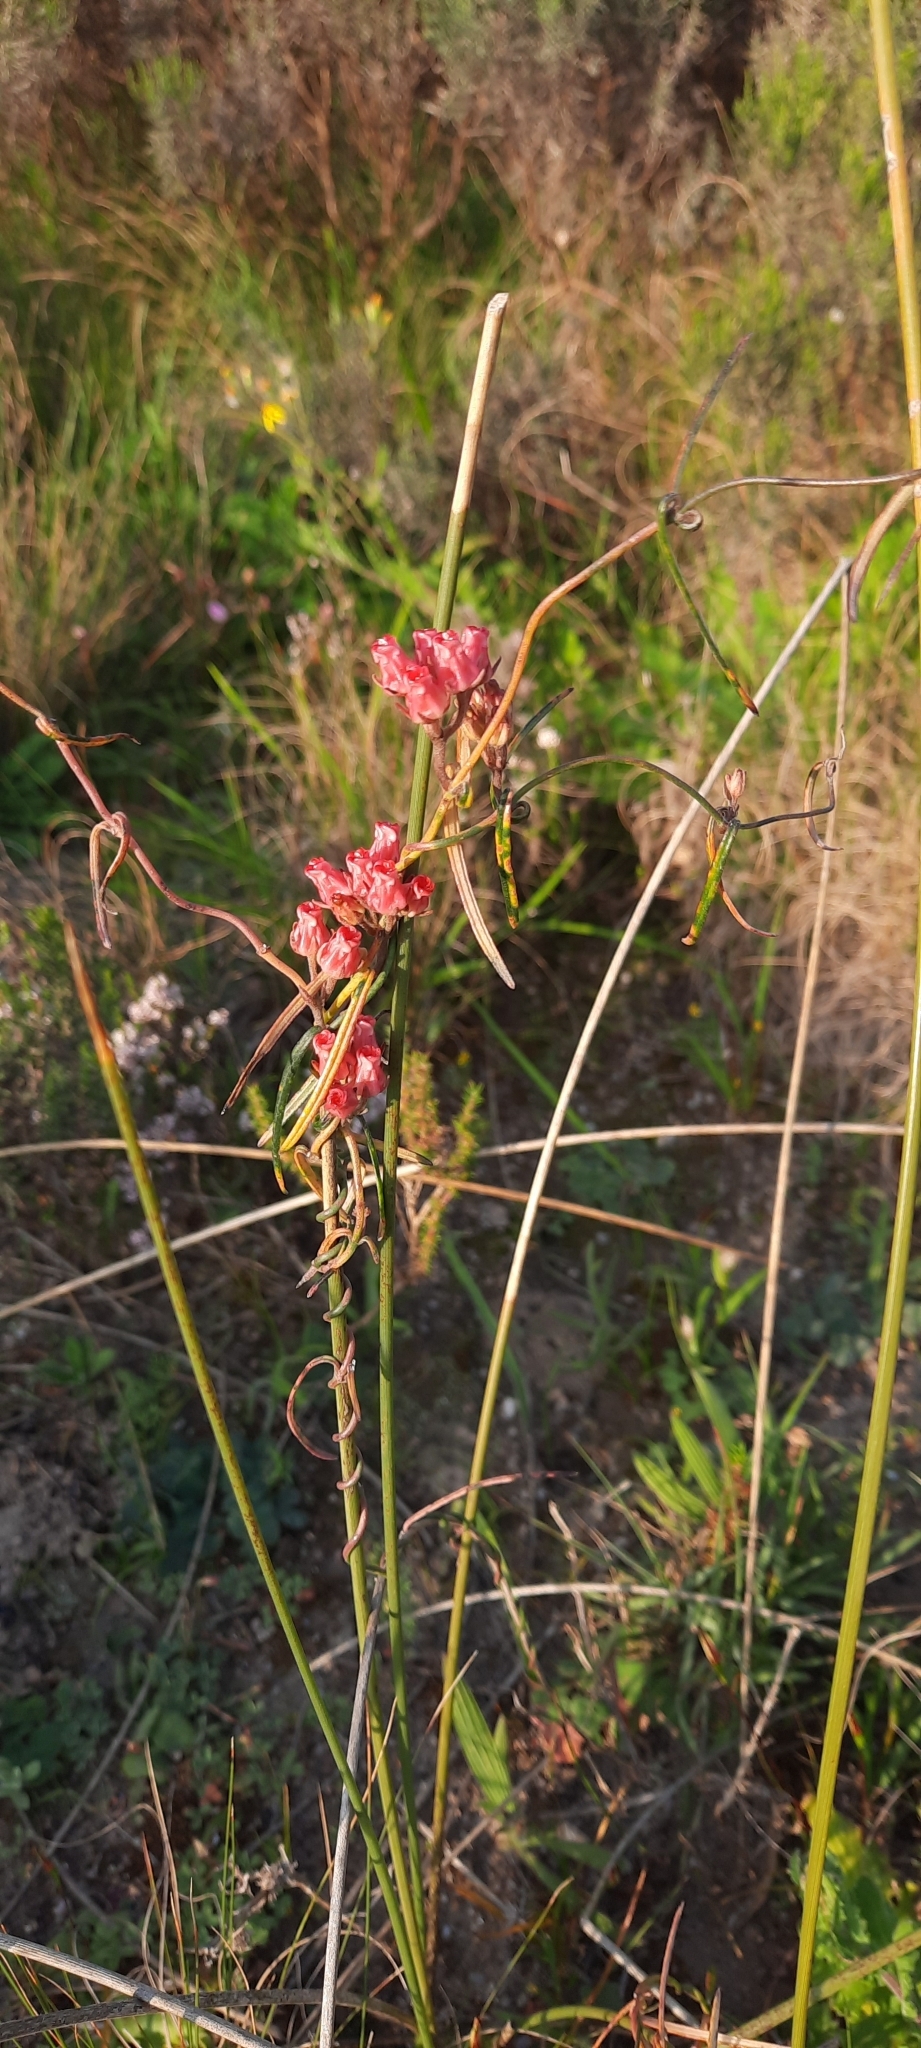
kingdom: Plantae
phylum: Tracheophyta
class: Magnoliopsida
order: Gentianales
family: Apocynaceae
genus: Microloma
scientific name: Microloma tenuifolium
